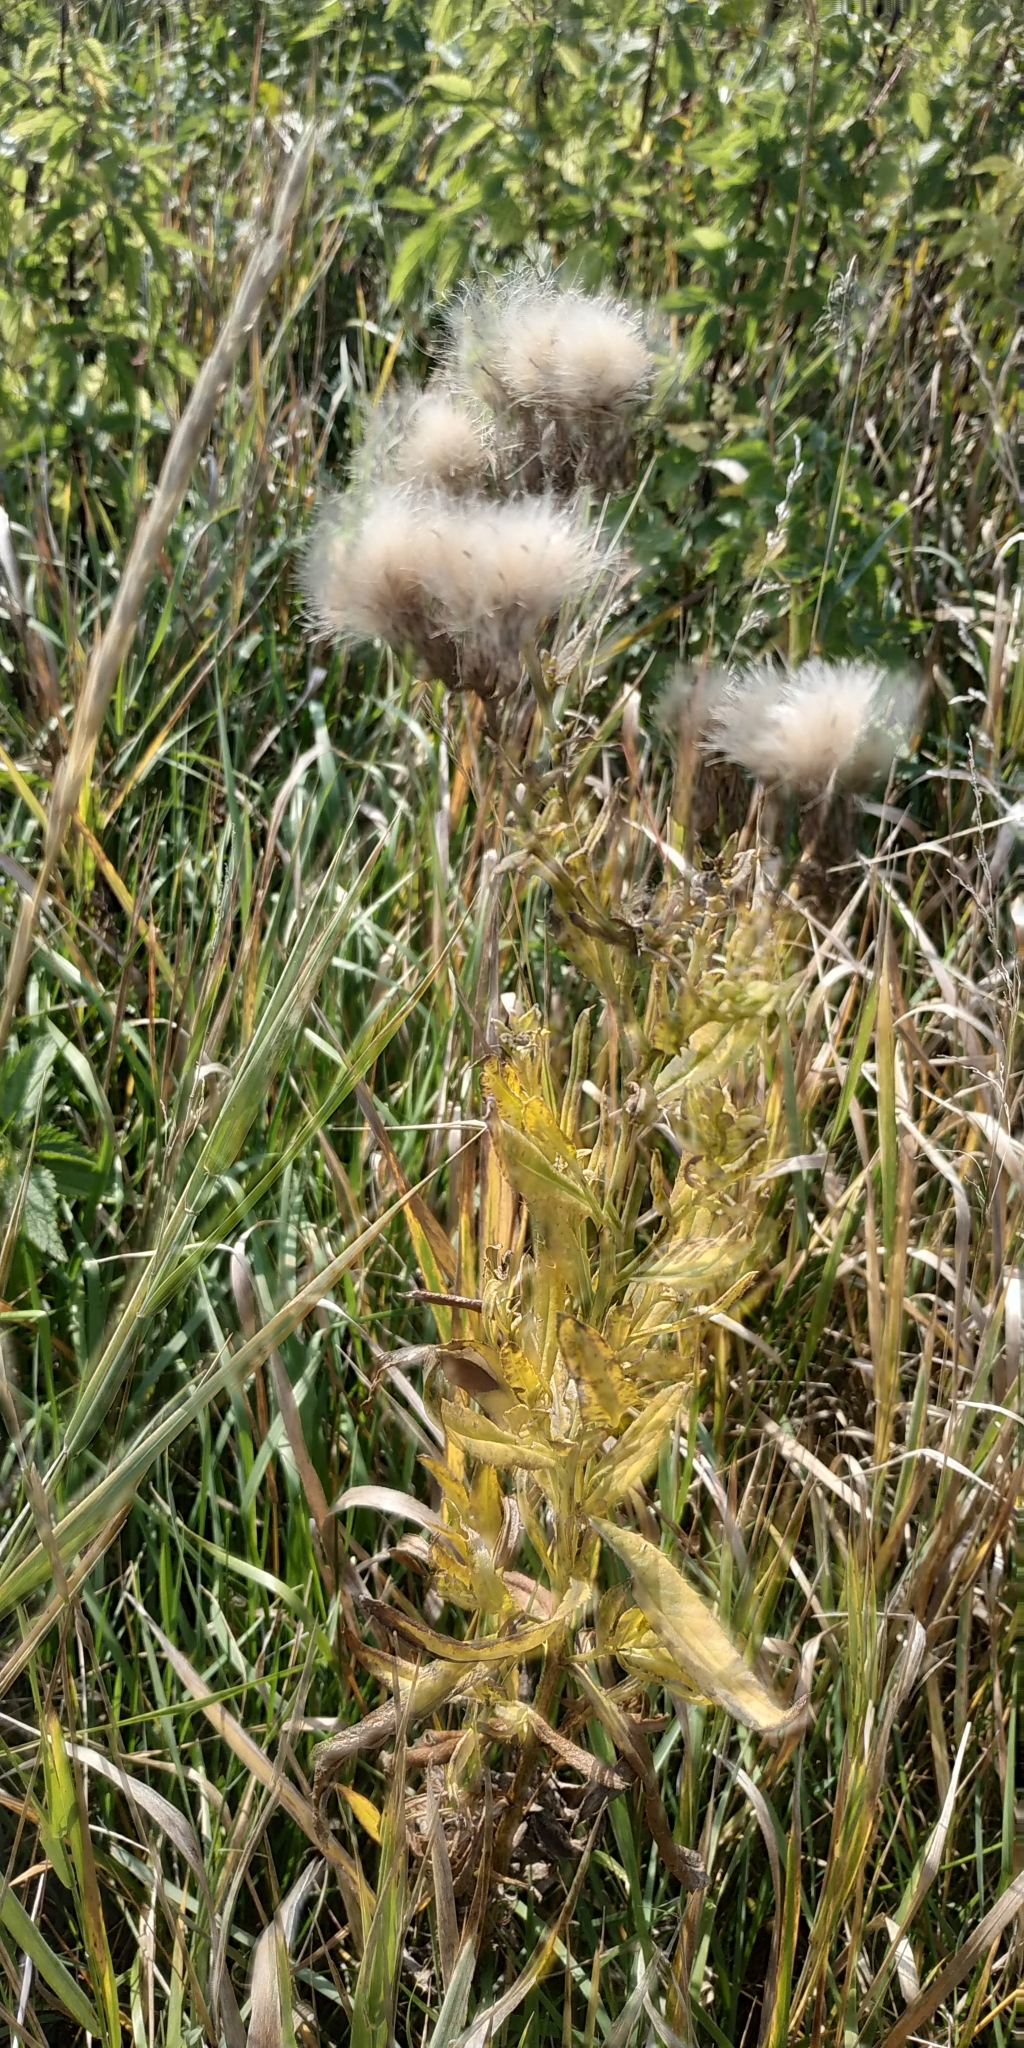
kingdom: Plantae
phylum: Tracheophyta
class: Magnoliopsida
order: Asterales
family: Asteraceae
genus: Cirsium
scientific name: Cirsium arvense
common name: Creeping thistle
